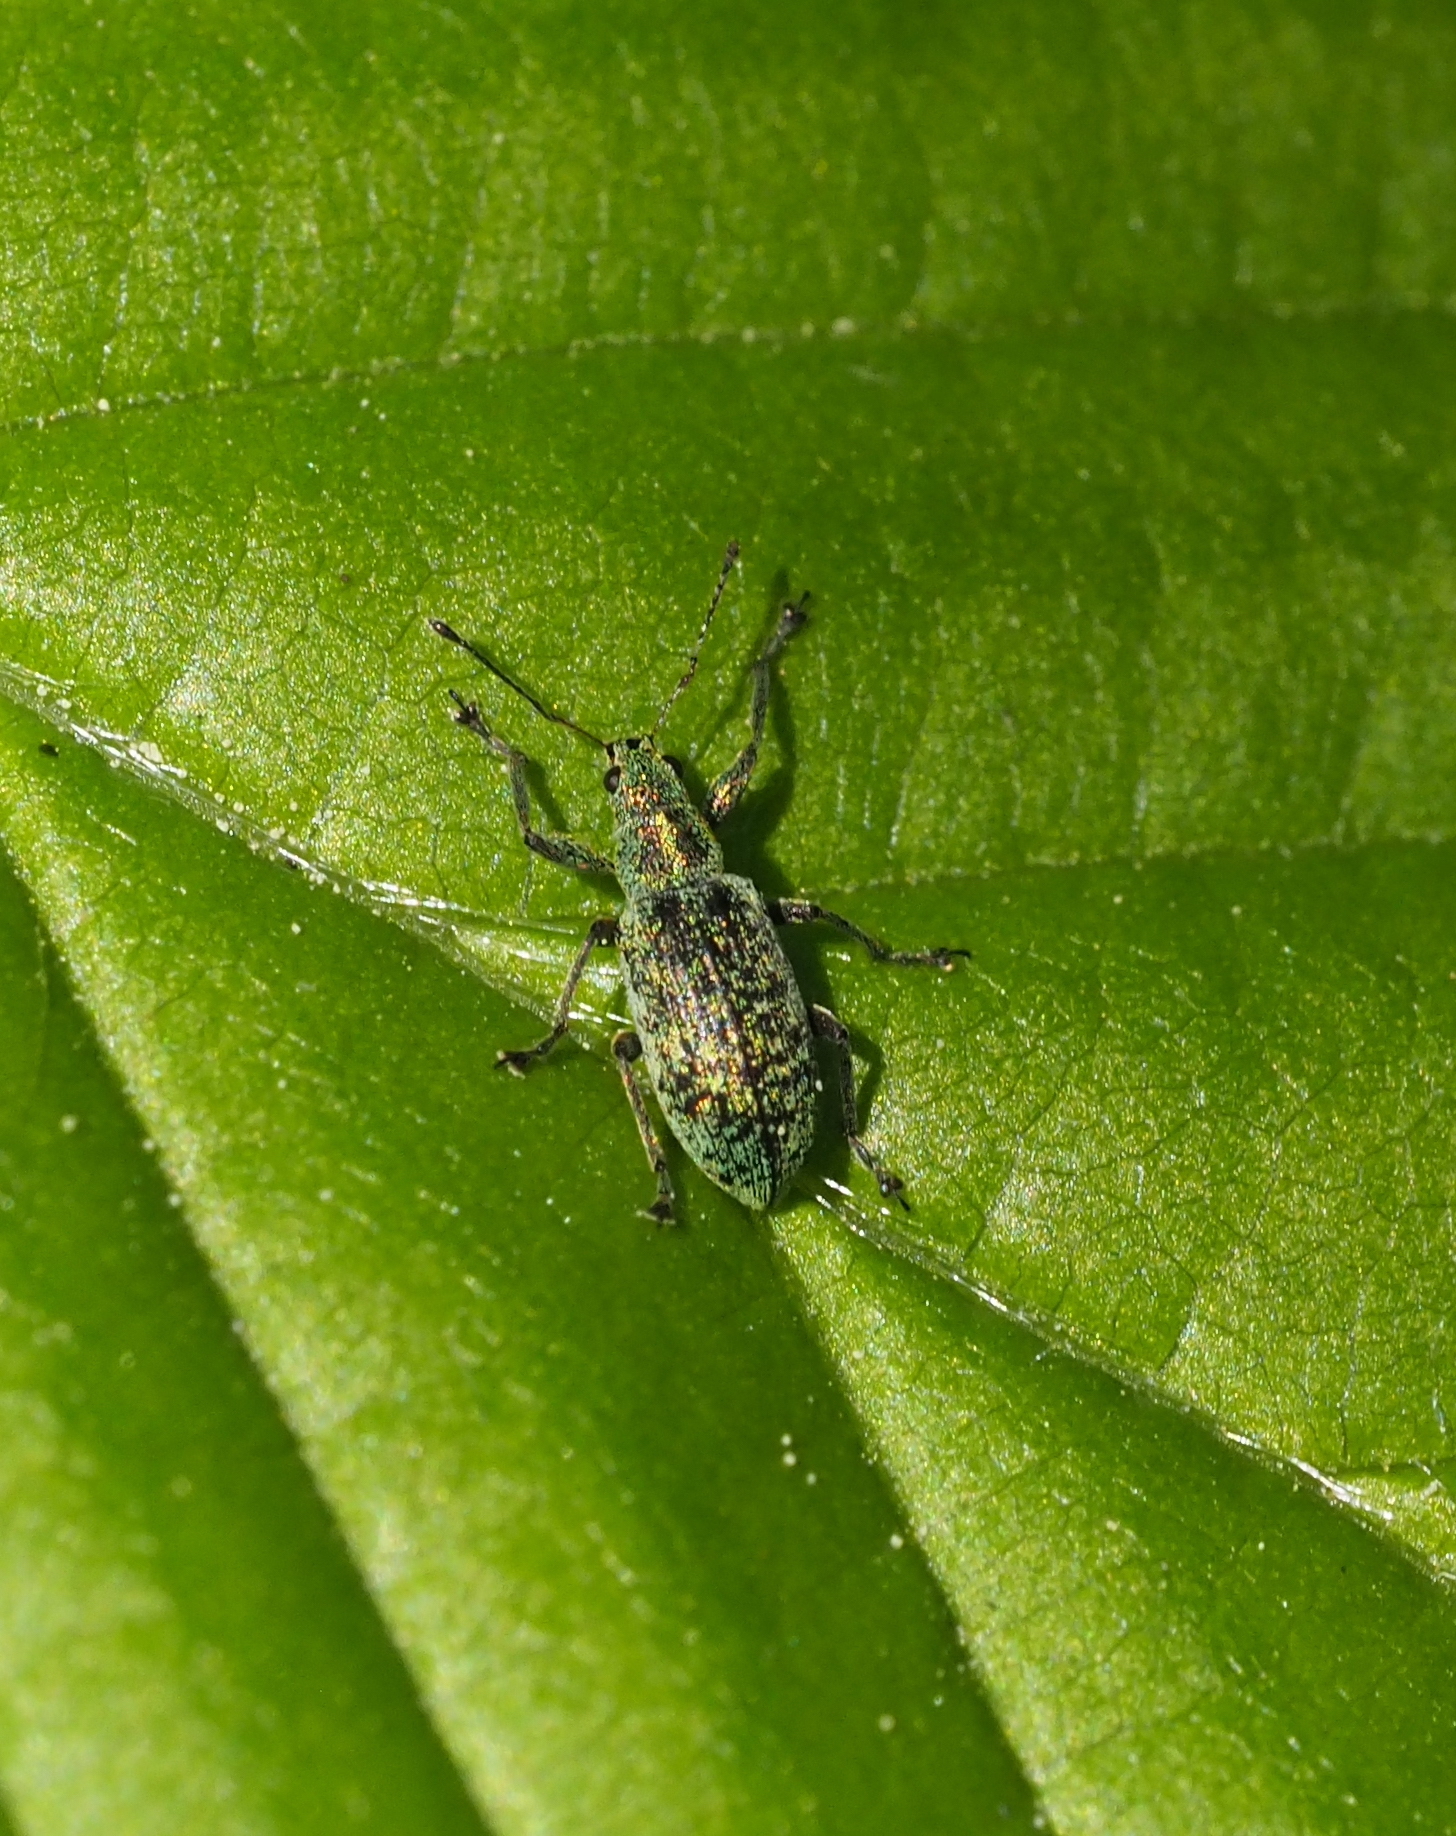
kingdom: Animalia
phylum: Arthropoda
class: Insecta
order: Coleoptera
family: Curculionidae
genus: Polydrusus
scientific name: Polydrusus cervinus
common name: Weevil
